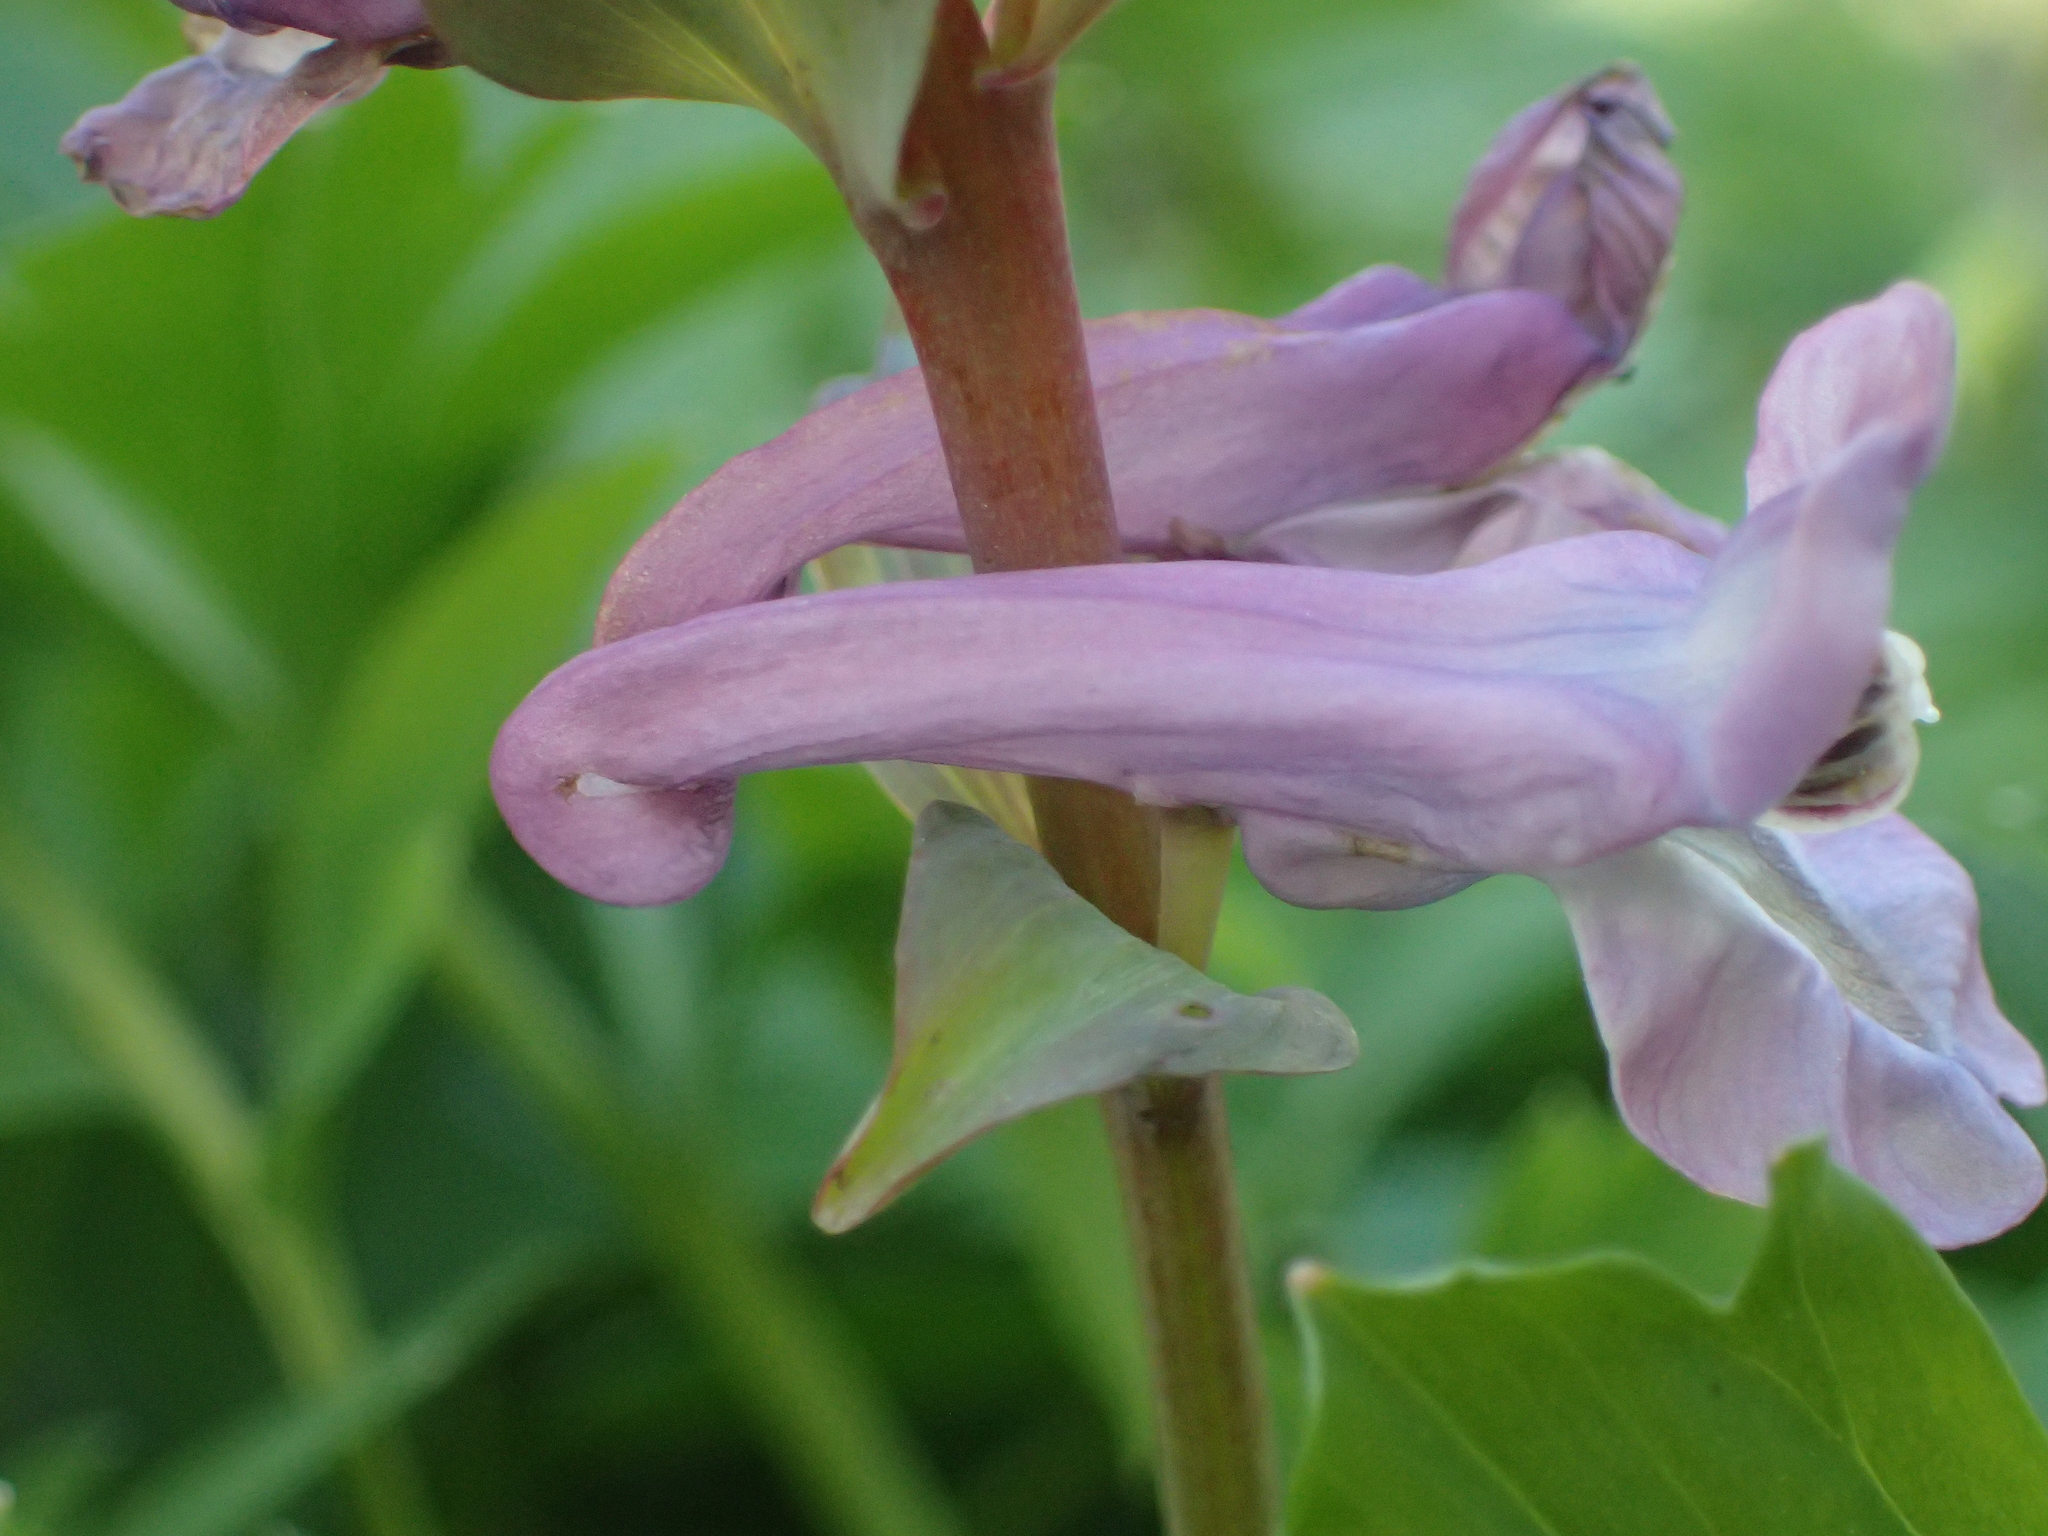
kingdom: Plantae
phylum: Tracheophyta
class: Magnoliopsida
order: Ranunculales
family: Papaveraceae
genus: Corydalis
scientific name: Corydalis cava
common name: Hollowroot
